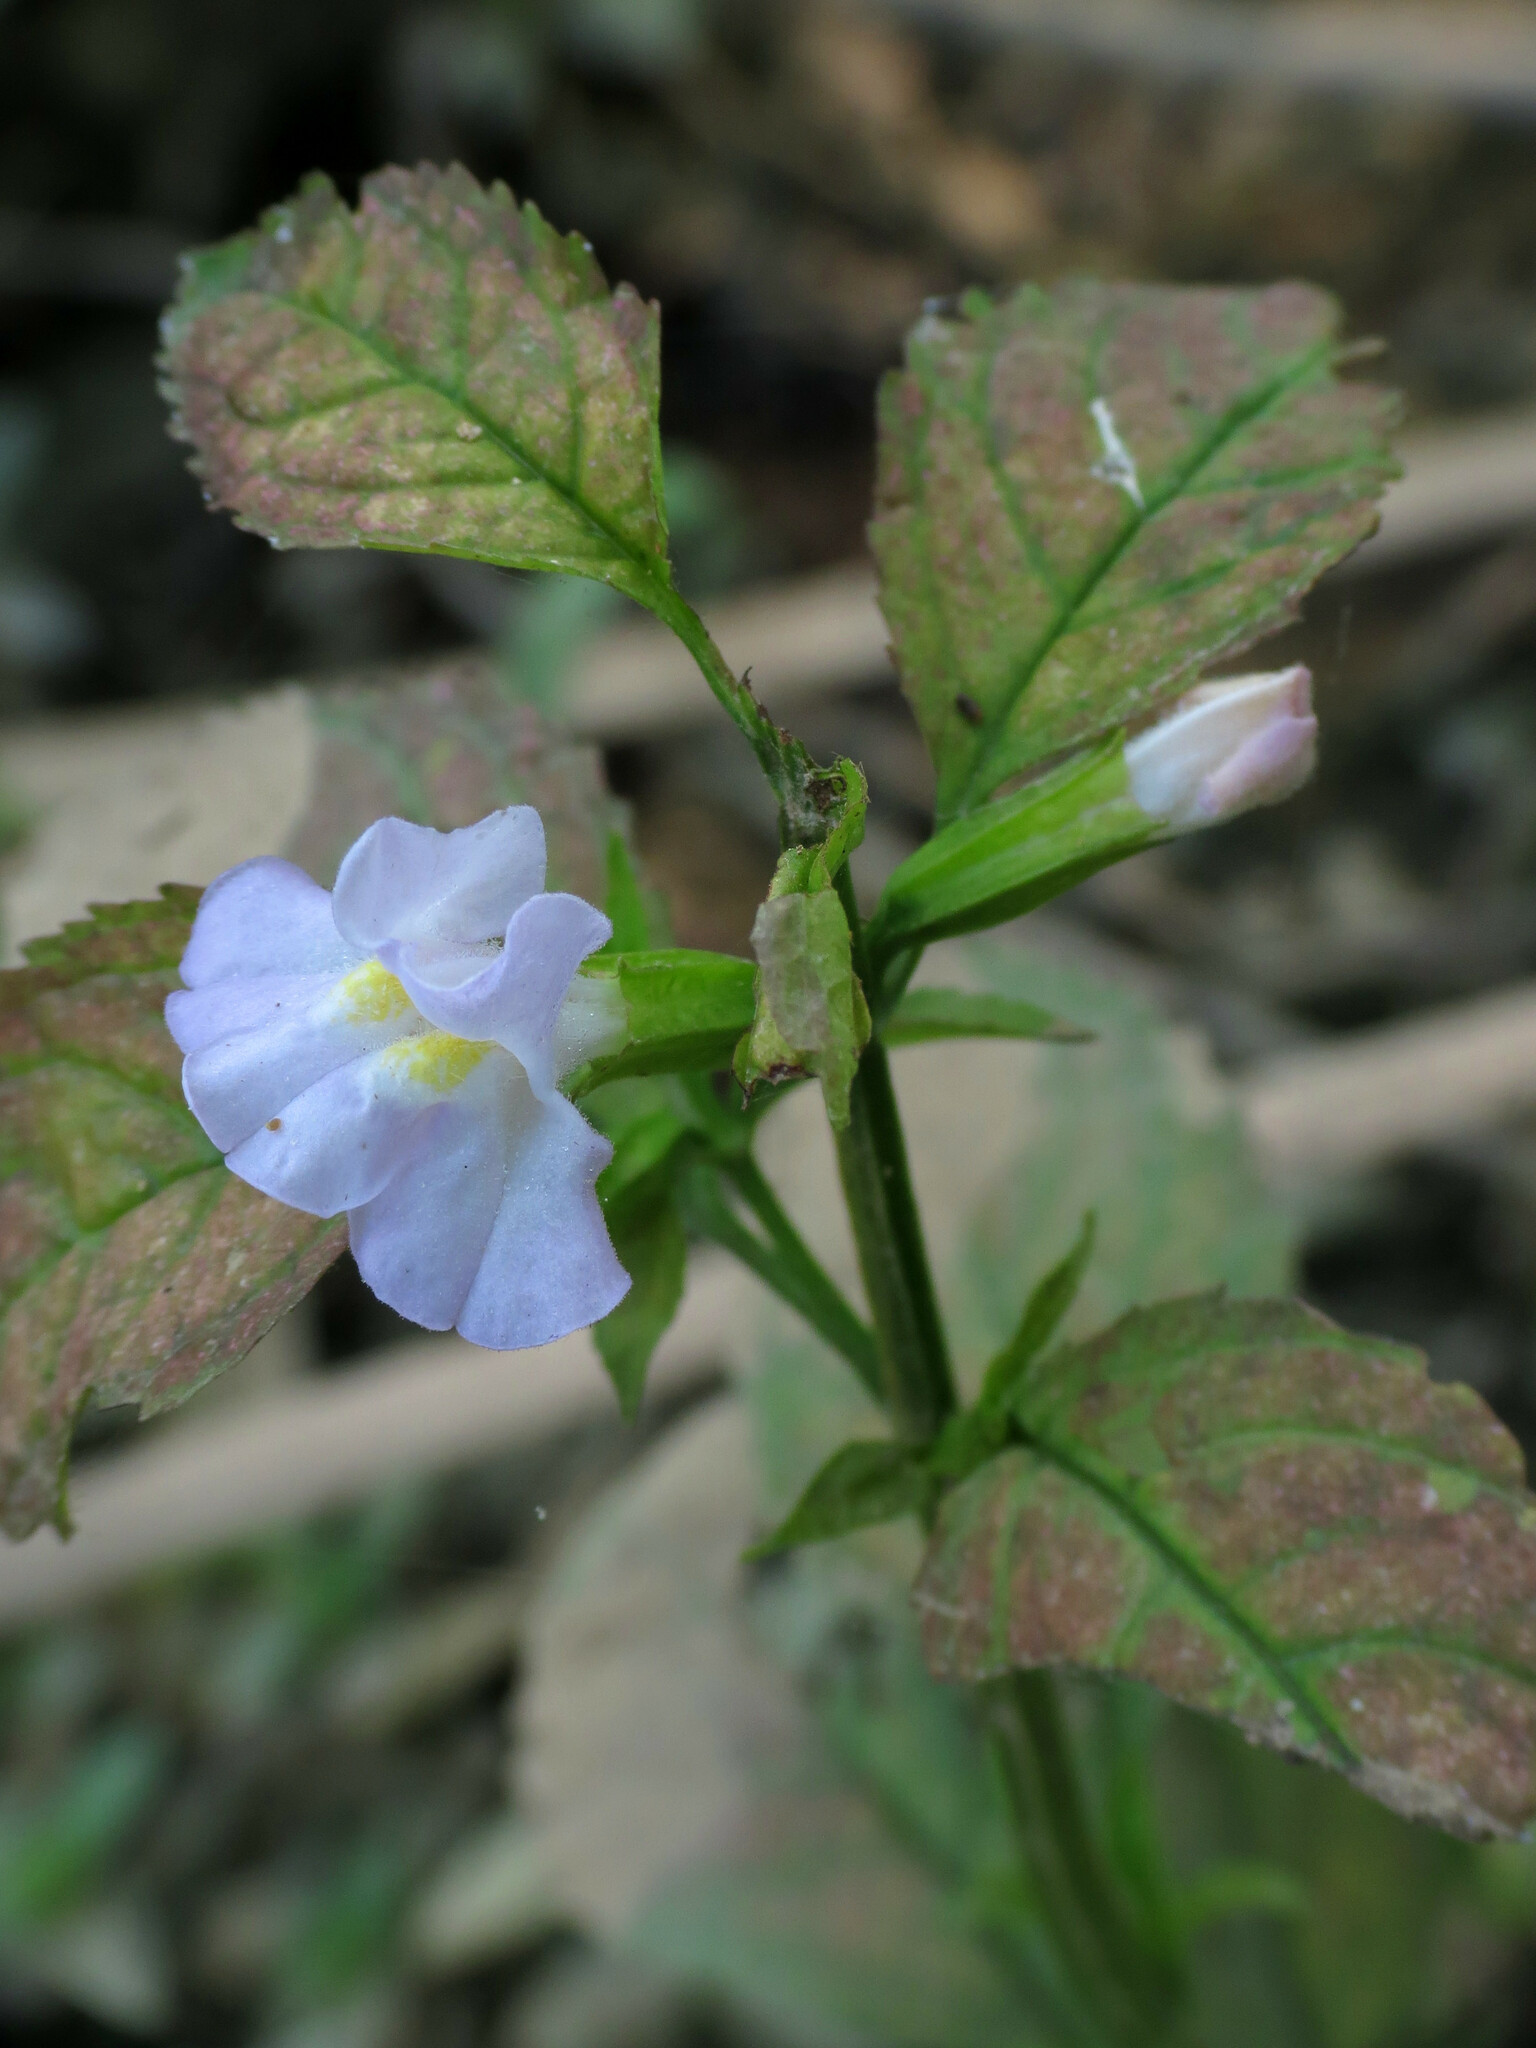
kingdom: Plantae
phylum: Tracheophyta
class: Magnoliopsida
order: Lamiales
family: Phrymaceae
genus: Mimulus
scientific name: Mimulus alatus
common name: Sharp-wing monkey-flower
